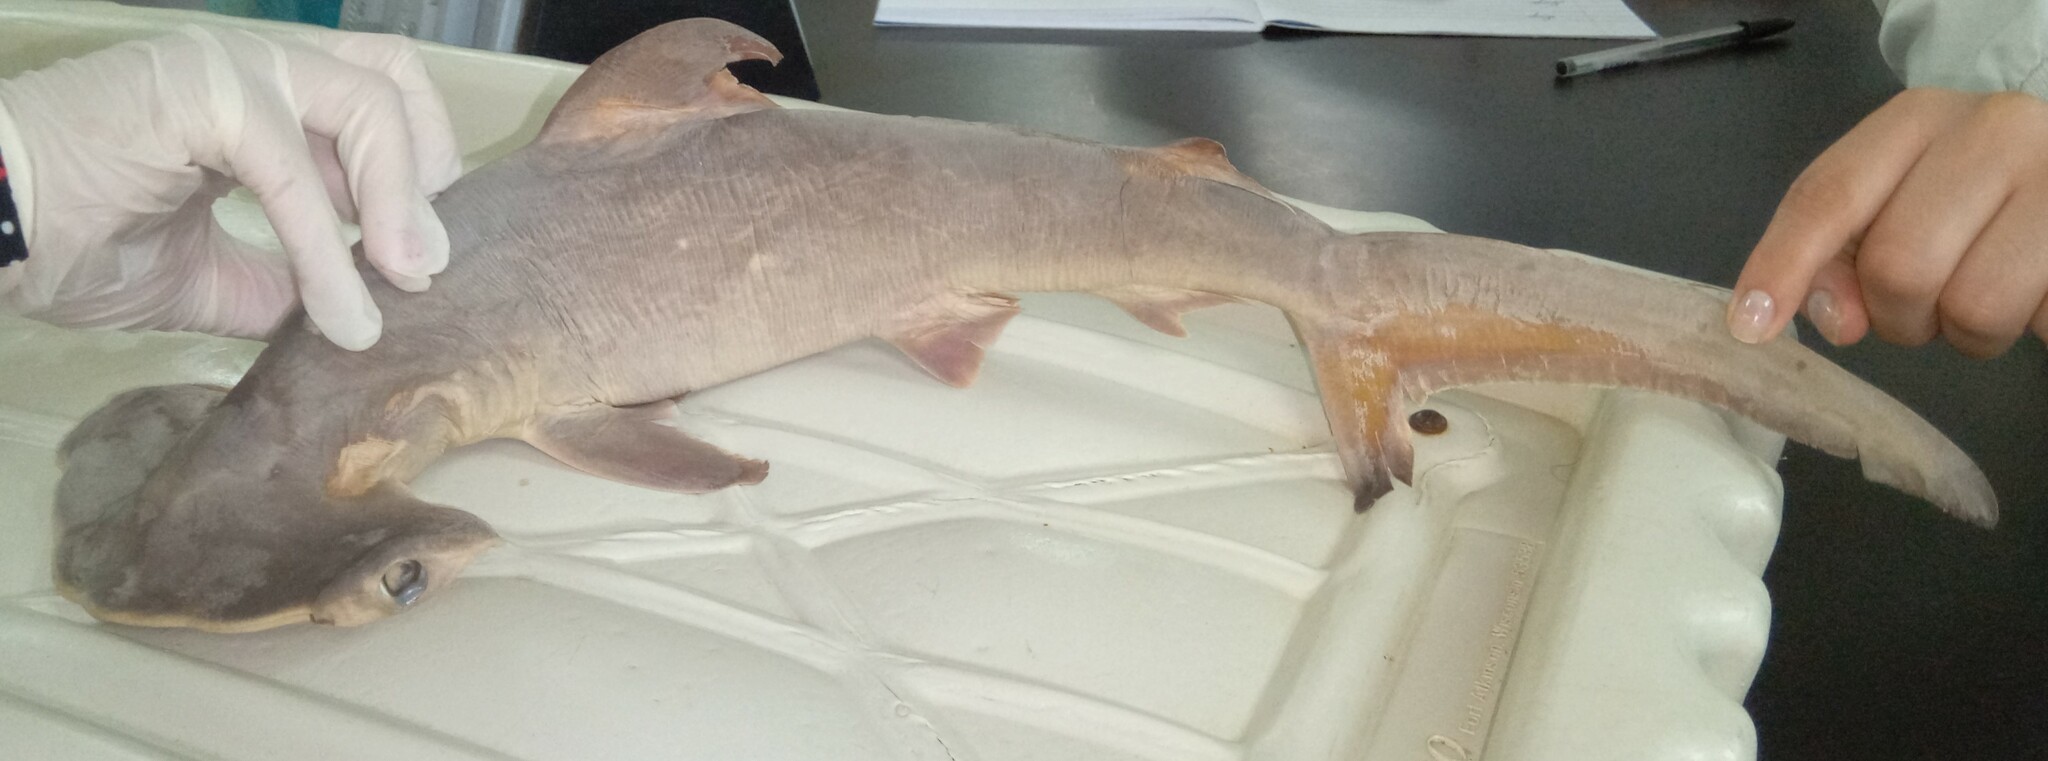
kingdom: Animalia
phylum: Chordata
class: Elasmobranchii
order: Carcharhiniformes
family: Sphyrnidae
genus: Sphyrna
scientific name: Sphyrna lewini
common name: Scalloped hammerhead
